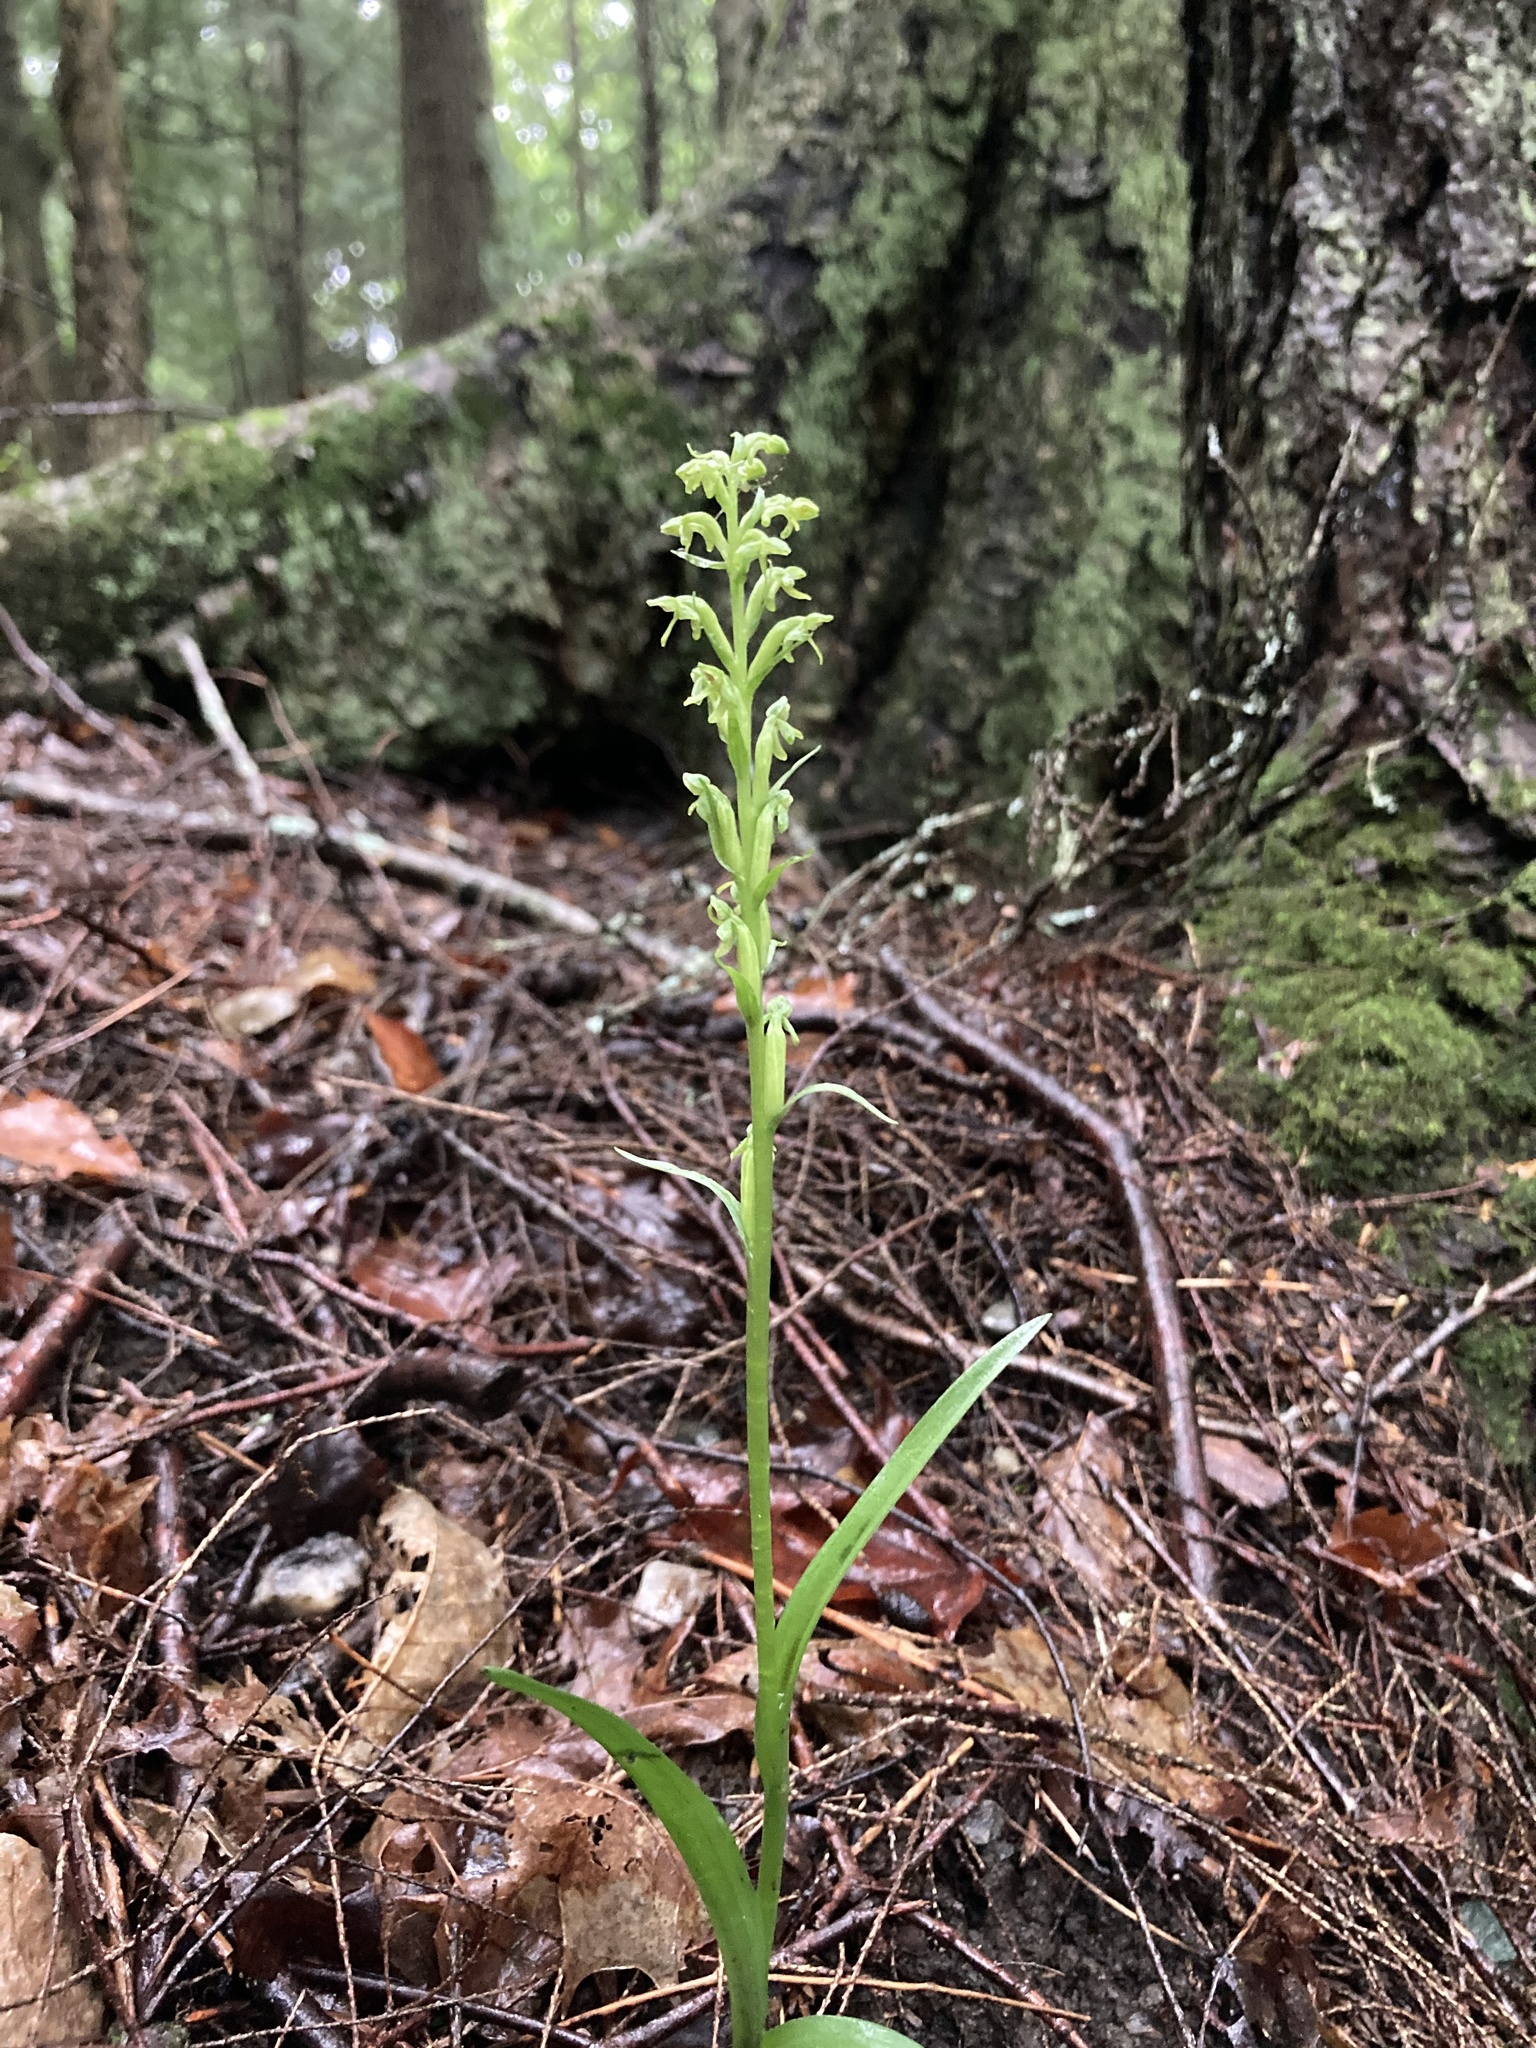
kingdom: Plantae
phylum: Tracheophyta
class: Liliopsida
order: Asparagales
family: Orchidaceae
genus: Platanthera
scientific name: Platanthera aquilonis
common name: Northern green orchid
